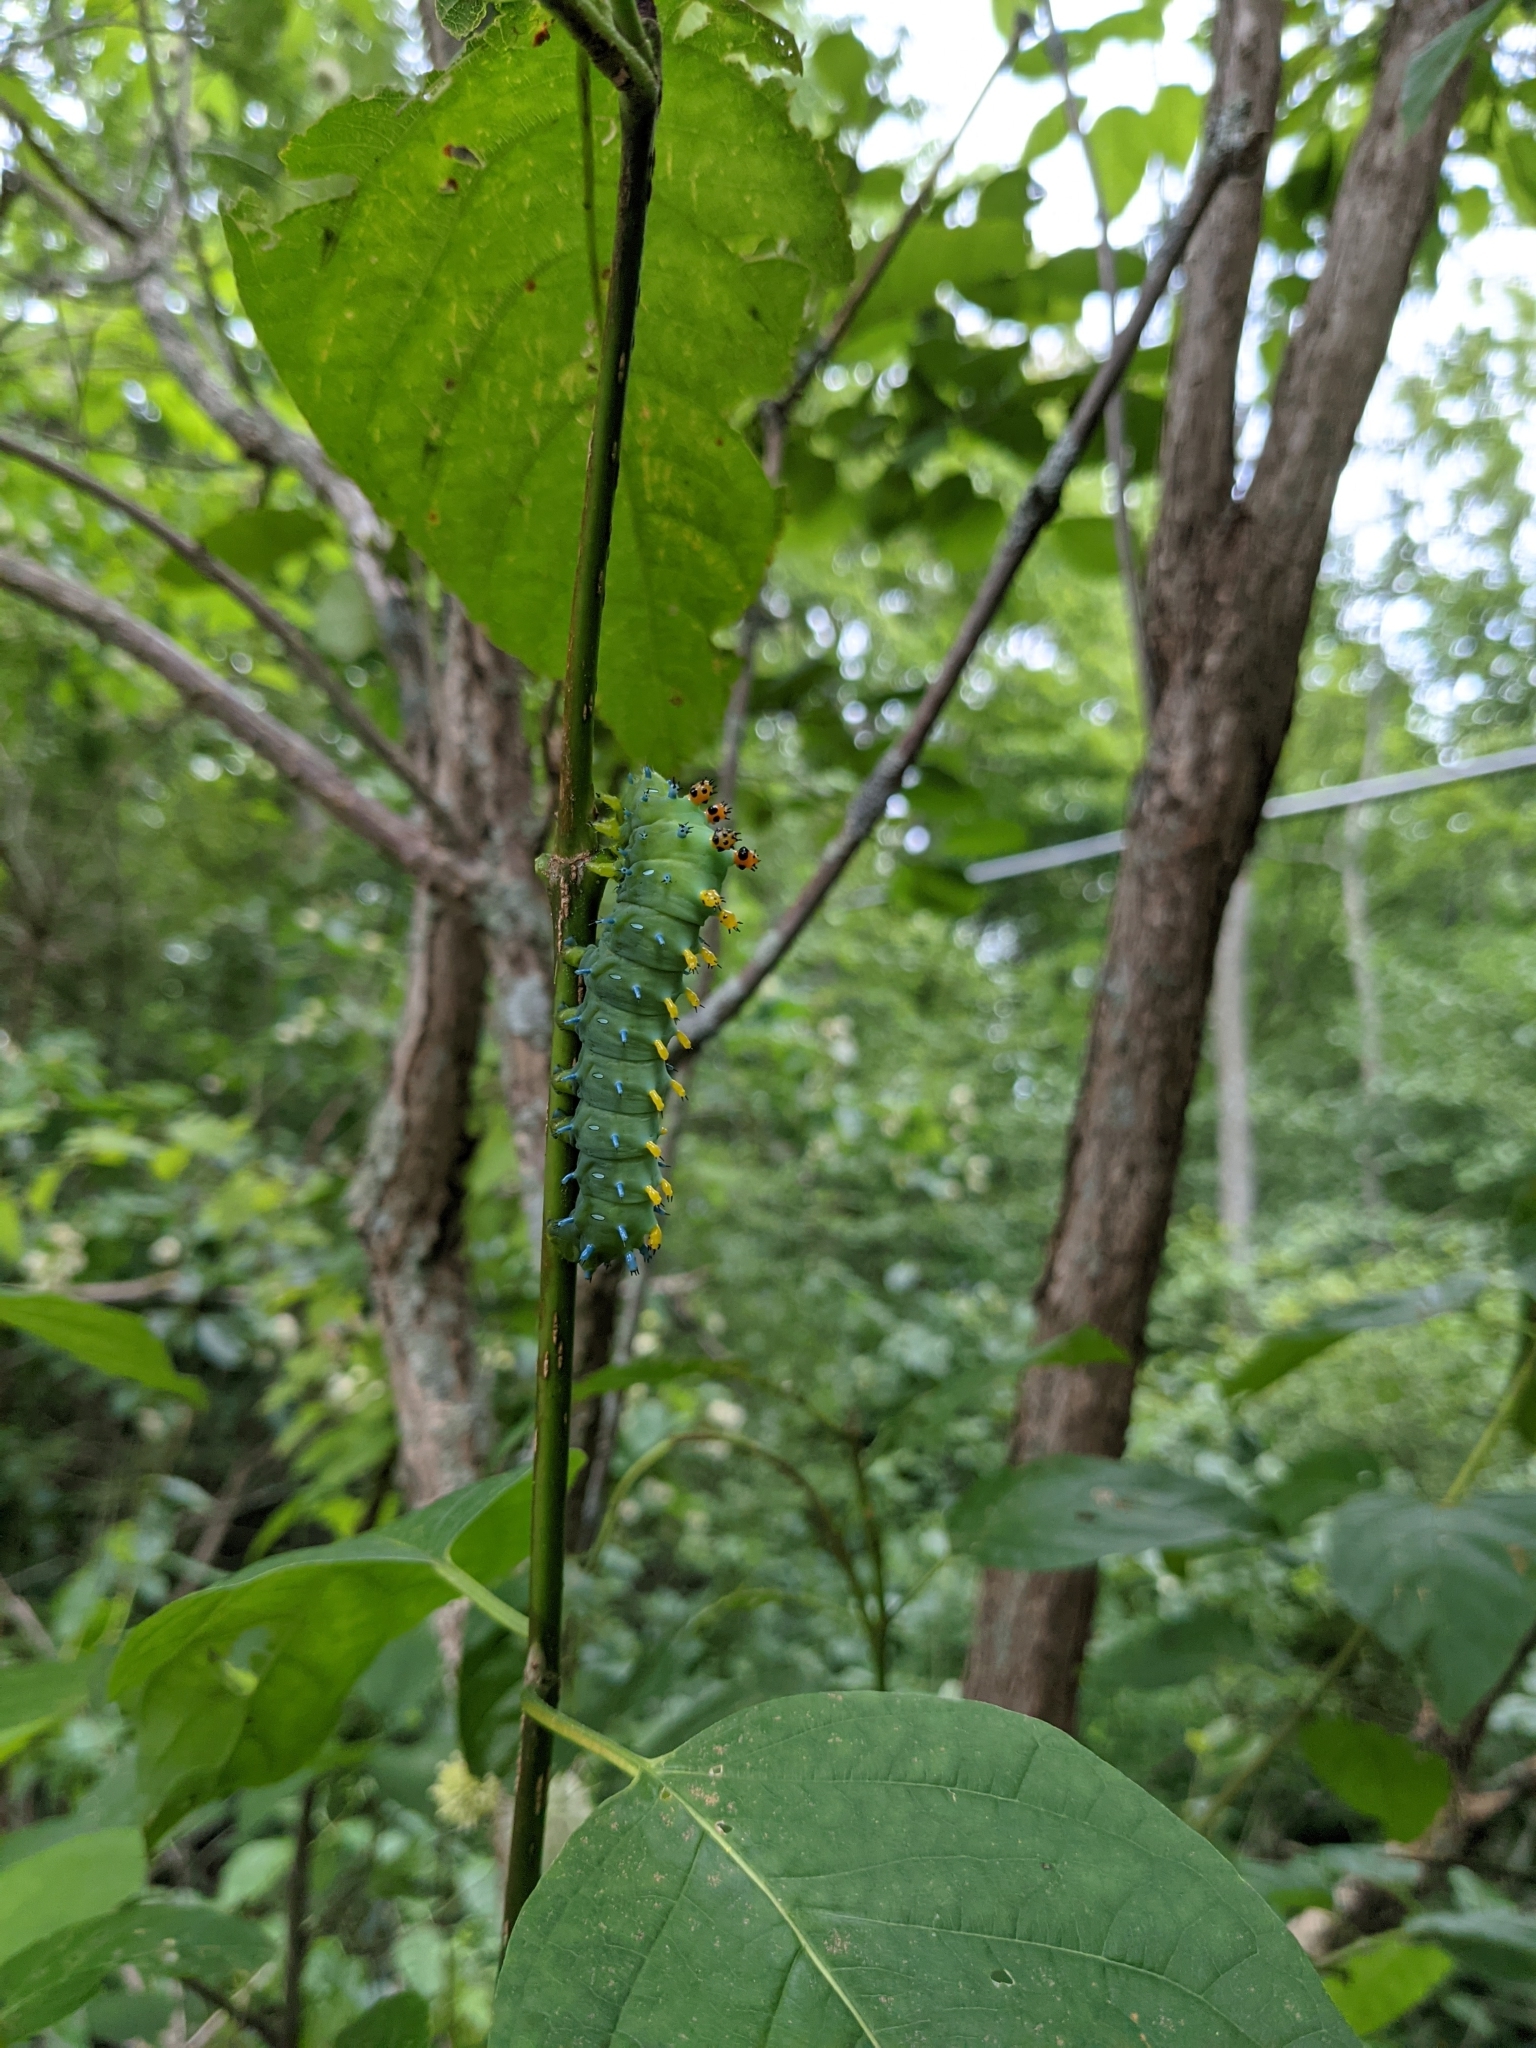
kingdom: Animalia
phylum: Arthropoda
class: Insecta
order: Lepidoptera
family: Saturniidae
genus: Hyalophora
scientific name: Hyalophora cecropia
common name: Cecropia silkmoth
